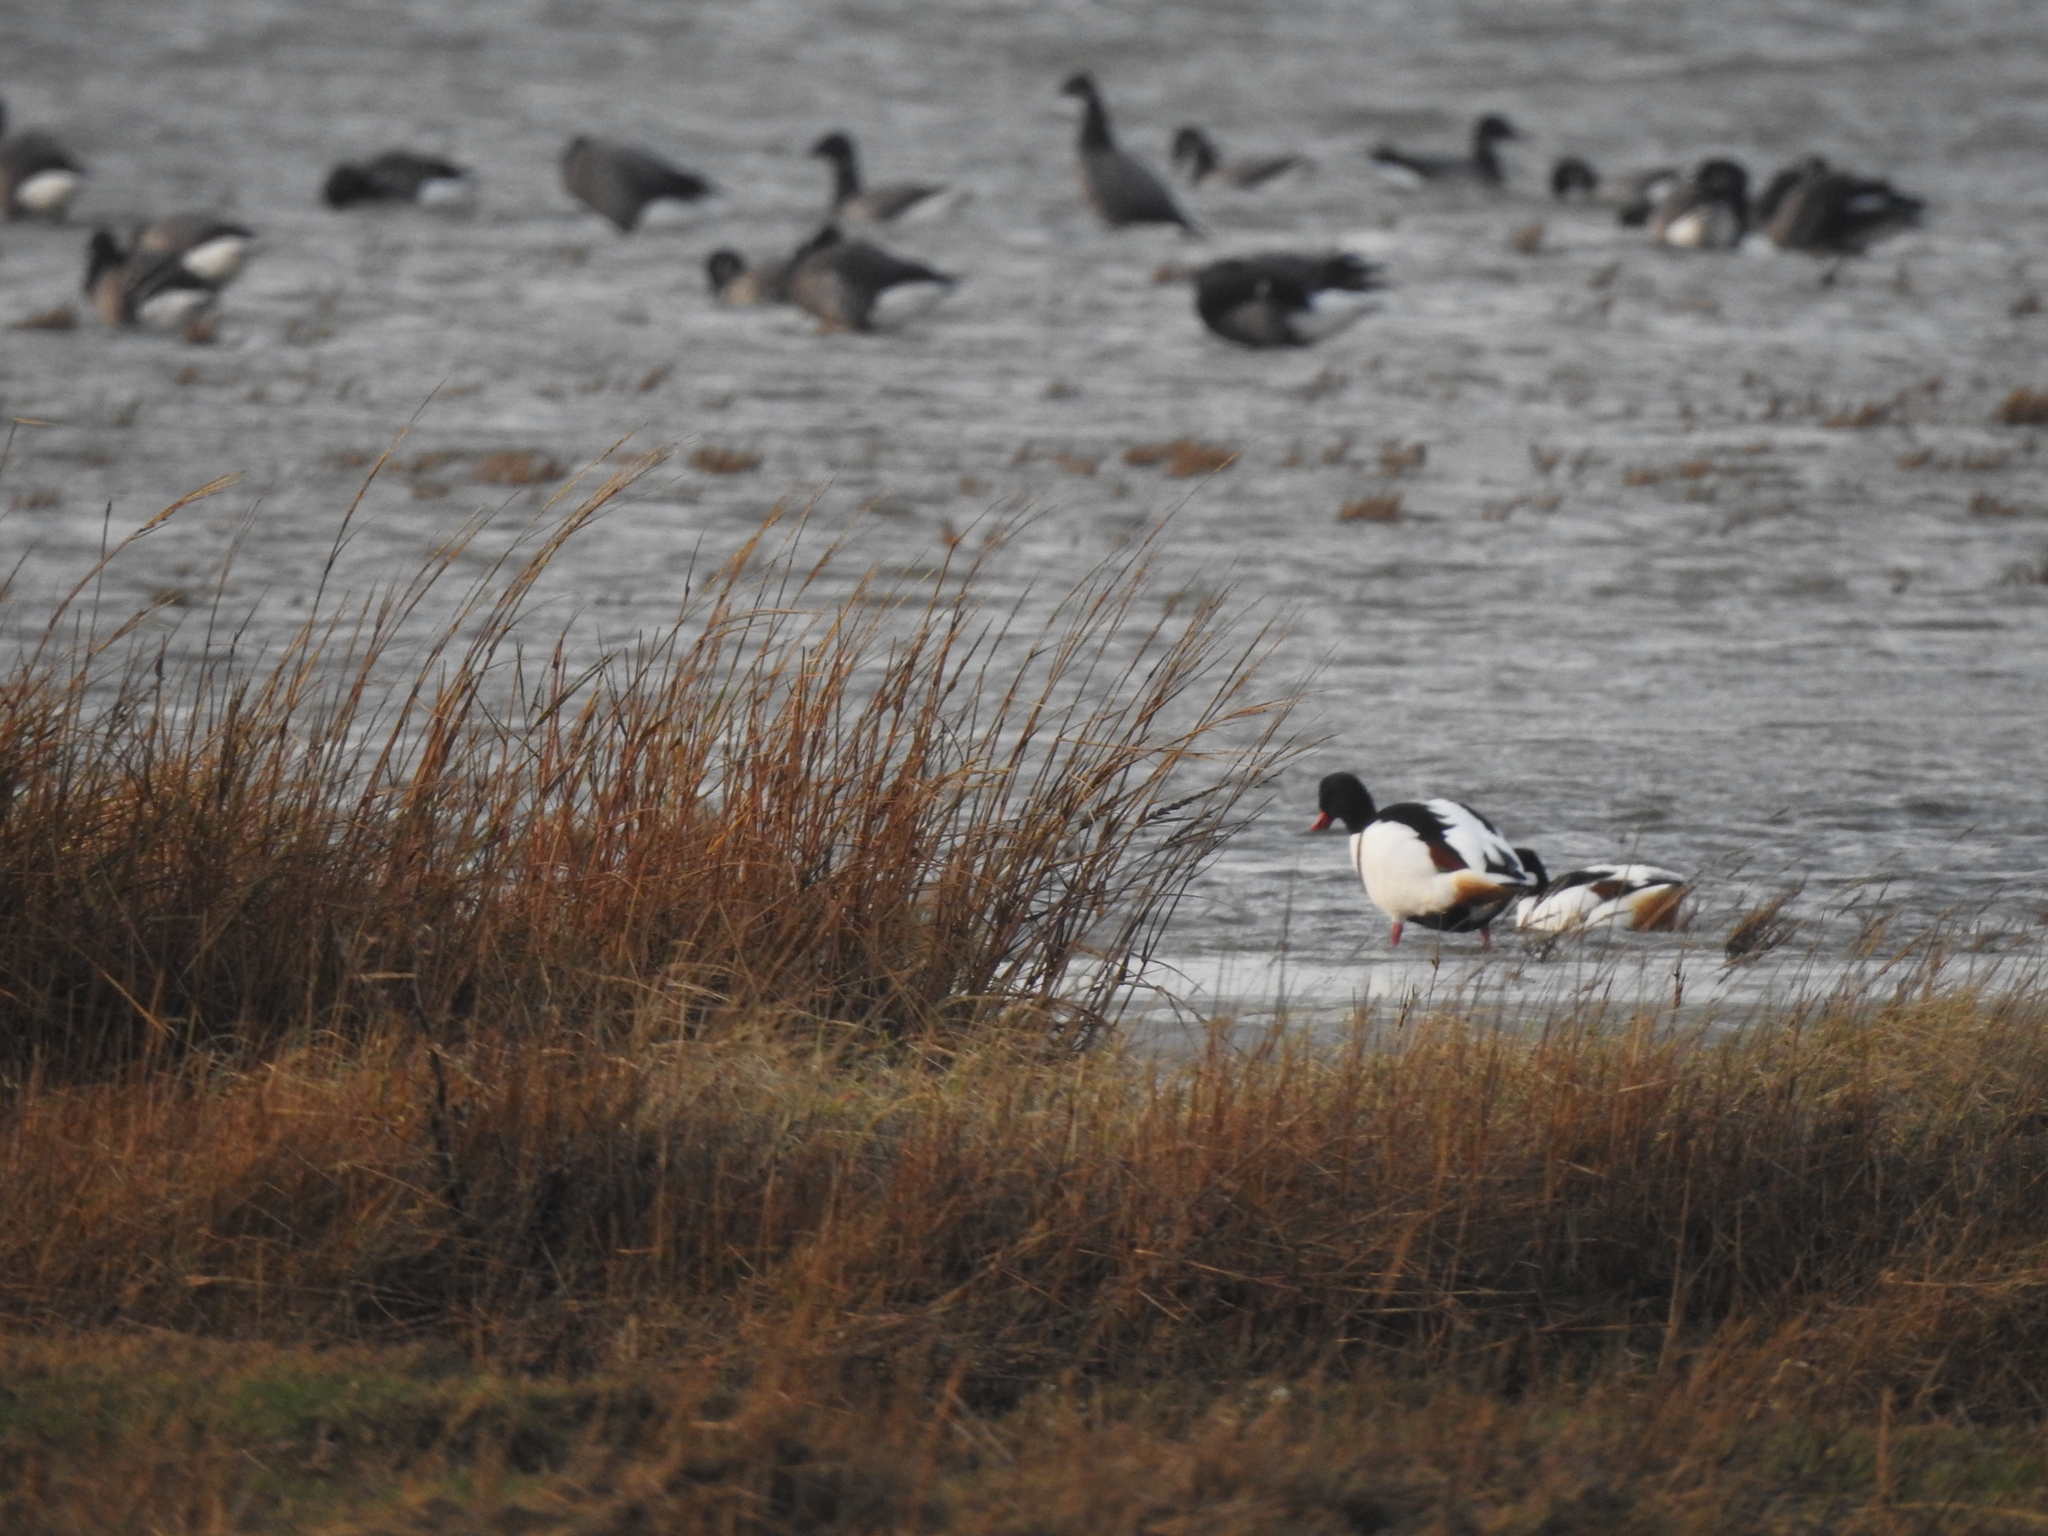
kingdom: Animalia
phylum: Chordata
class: Aves
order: Anseriformes
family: Anatidae
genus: Tadorna
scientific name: Tadorna tadorna
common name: Common shelduck
